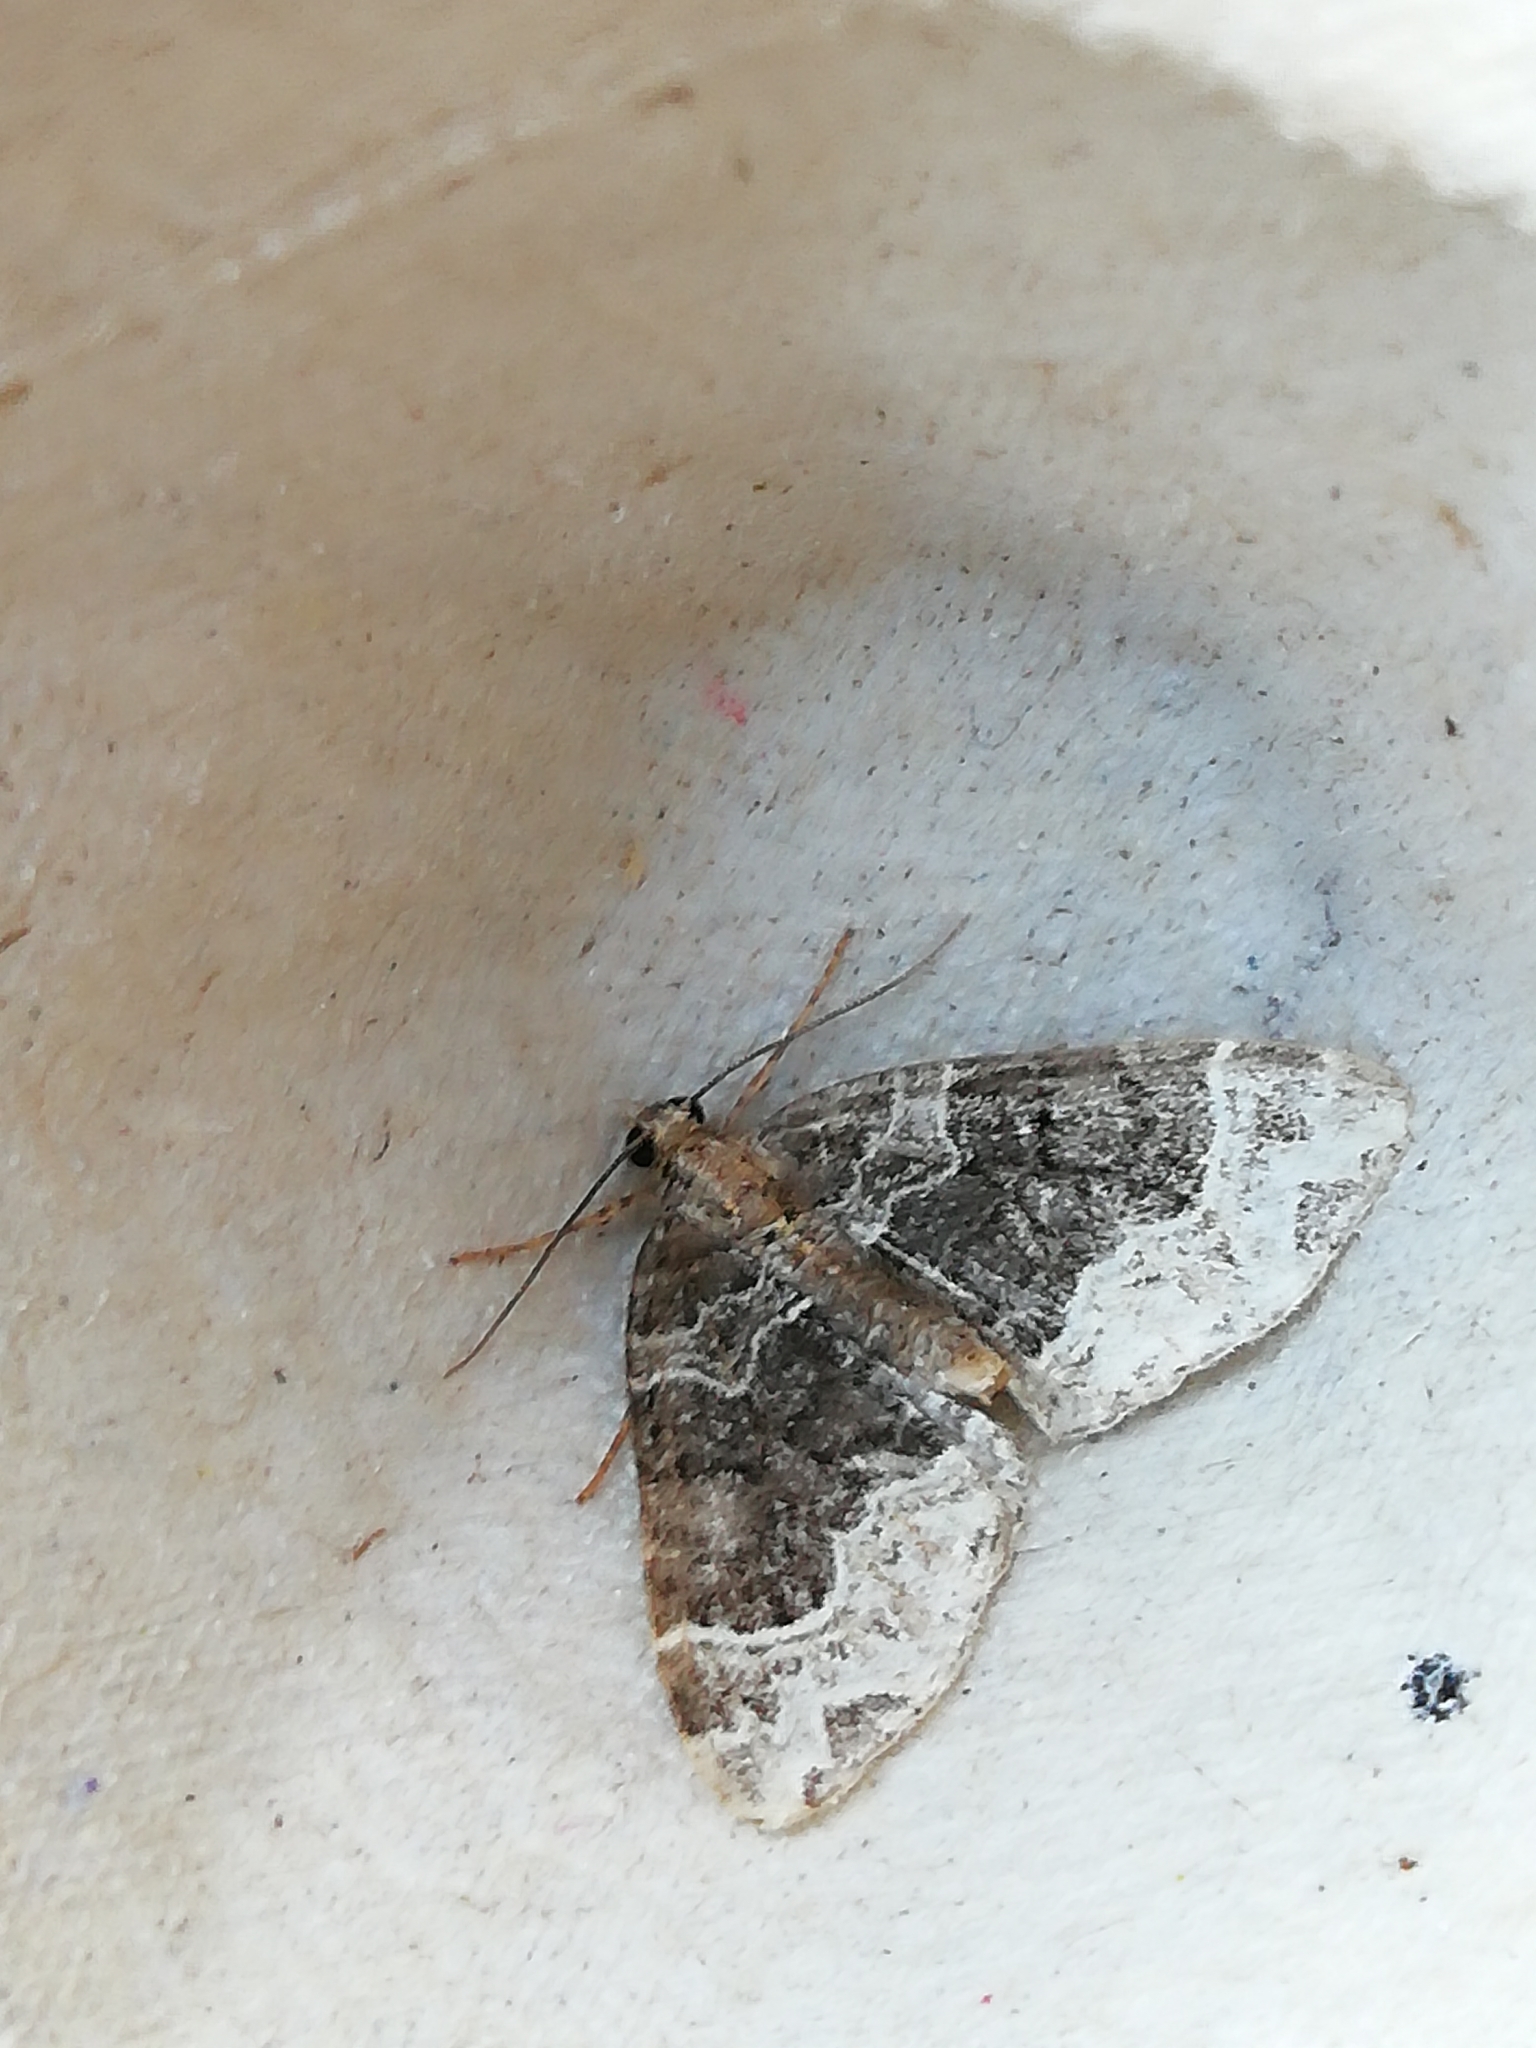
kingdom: Animalia
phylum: Arthropoda
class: Insecta
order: Lepidoptera
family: Geometridae
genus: Ecliptopera
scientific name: Ecliptopera silaceata
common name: Small phoenix
